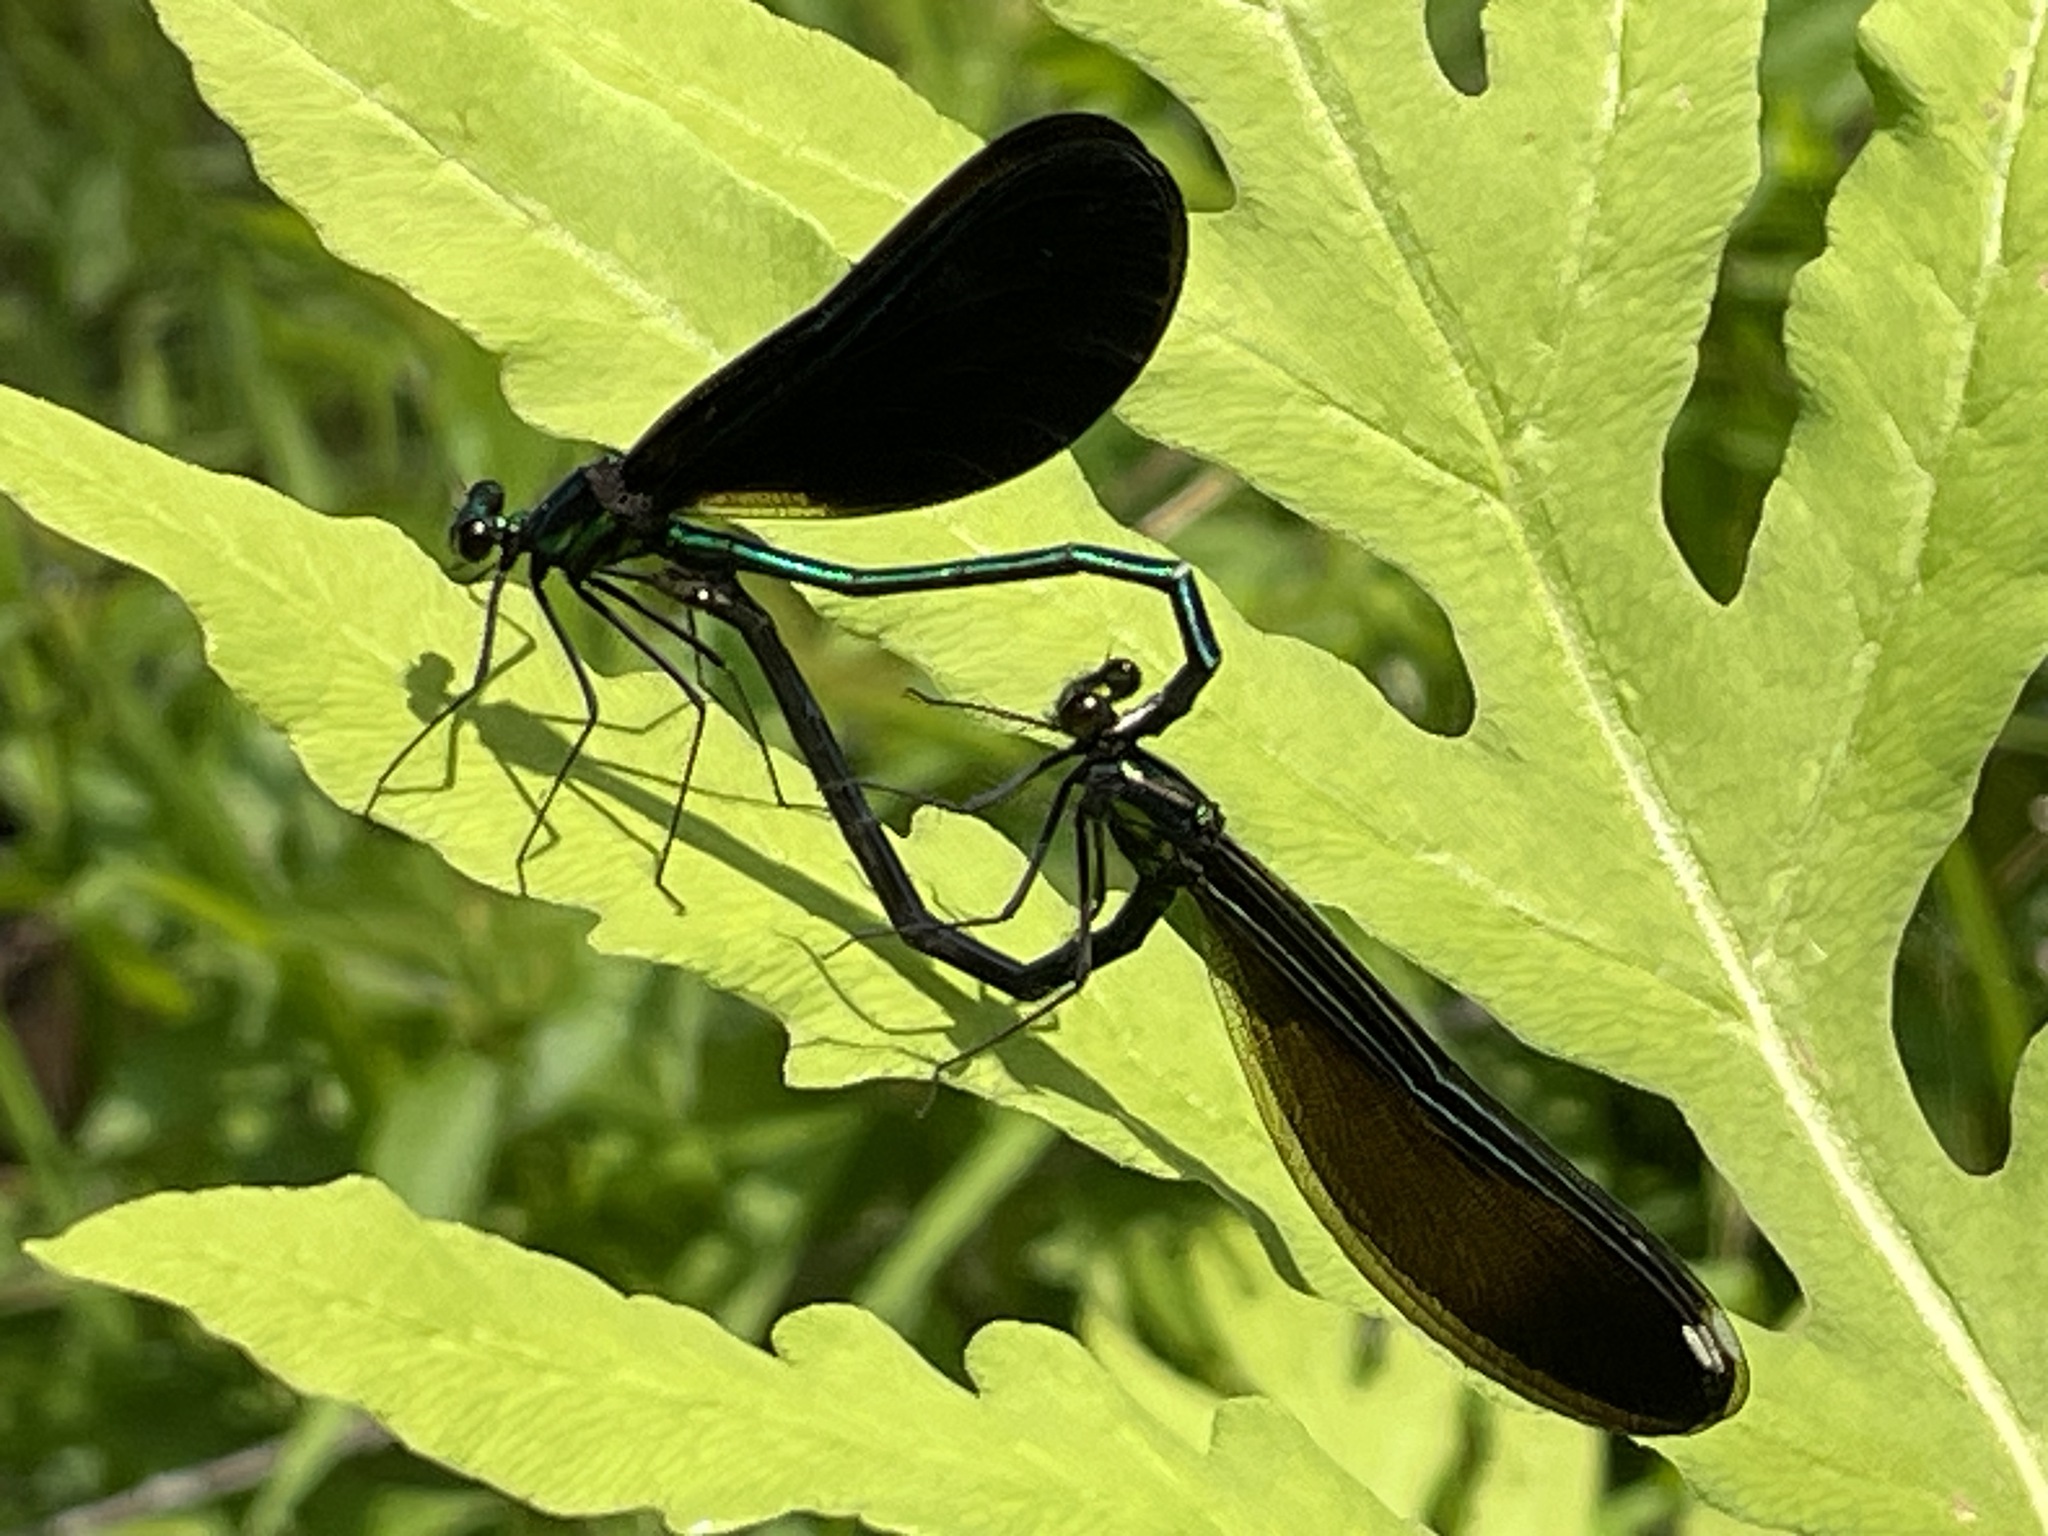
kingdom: Animalia
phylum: Arthropoda
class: Insecta
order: Odonata
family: Calopterygidae
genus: Calopteryx
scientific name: Calopteryx maculata
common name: Ebony jewelwing
